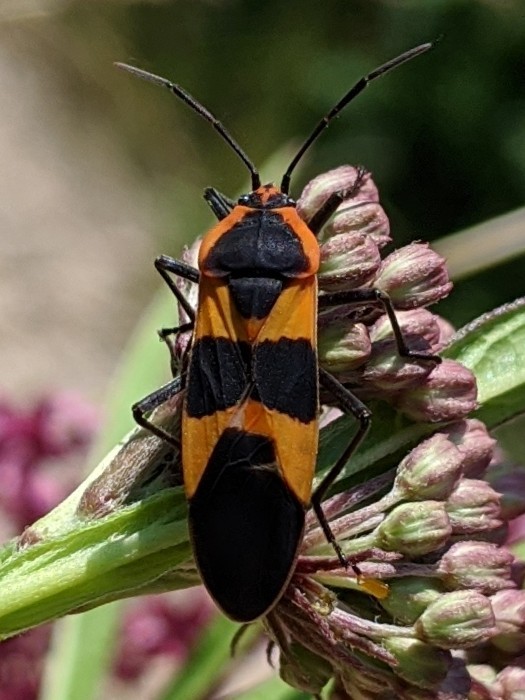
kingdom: Animalia
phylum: Arthropoda
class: Insecta
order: Hemiptera
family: Lygaeidae
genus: Oncopeltus
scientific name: Oncopeltus fasciatus
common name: Large milkweed bug
